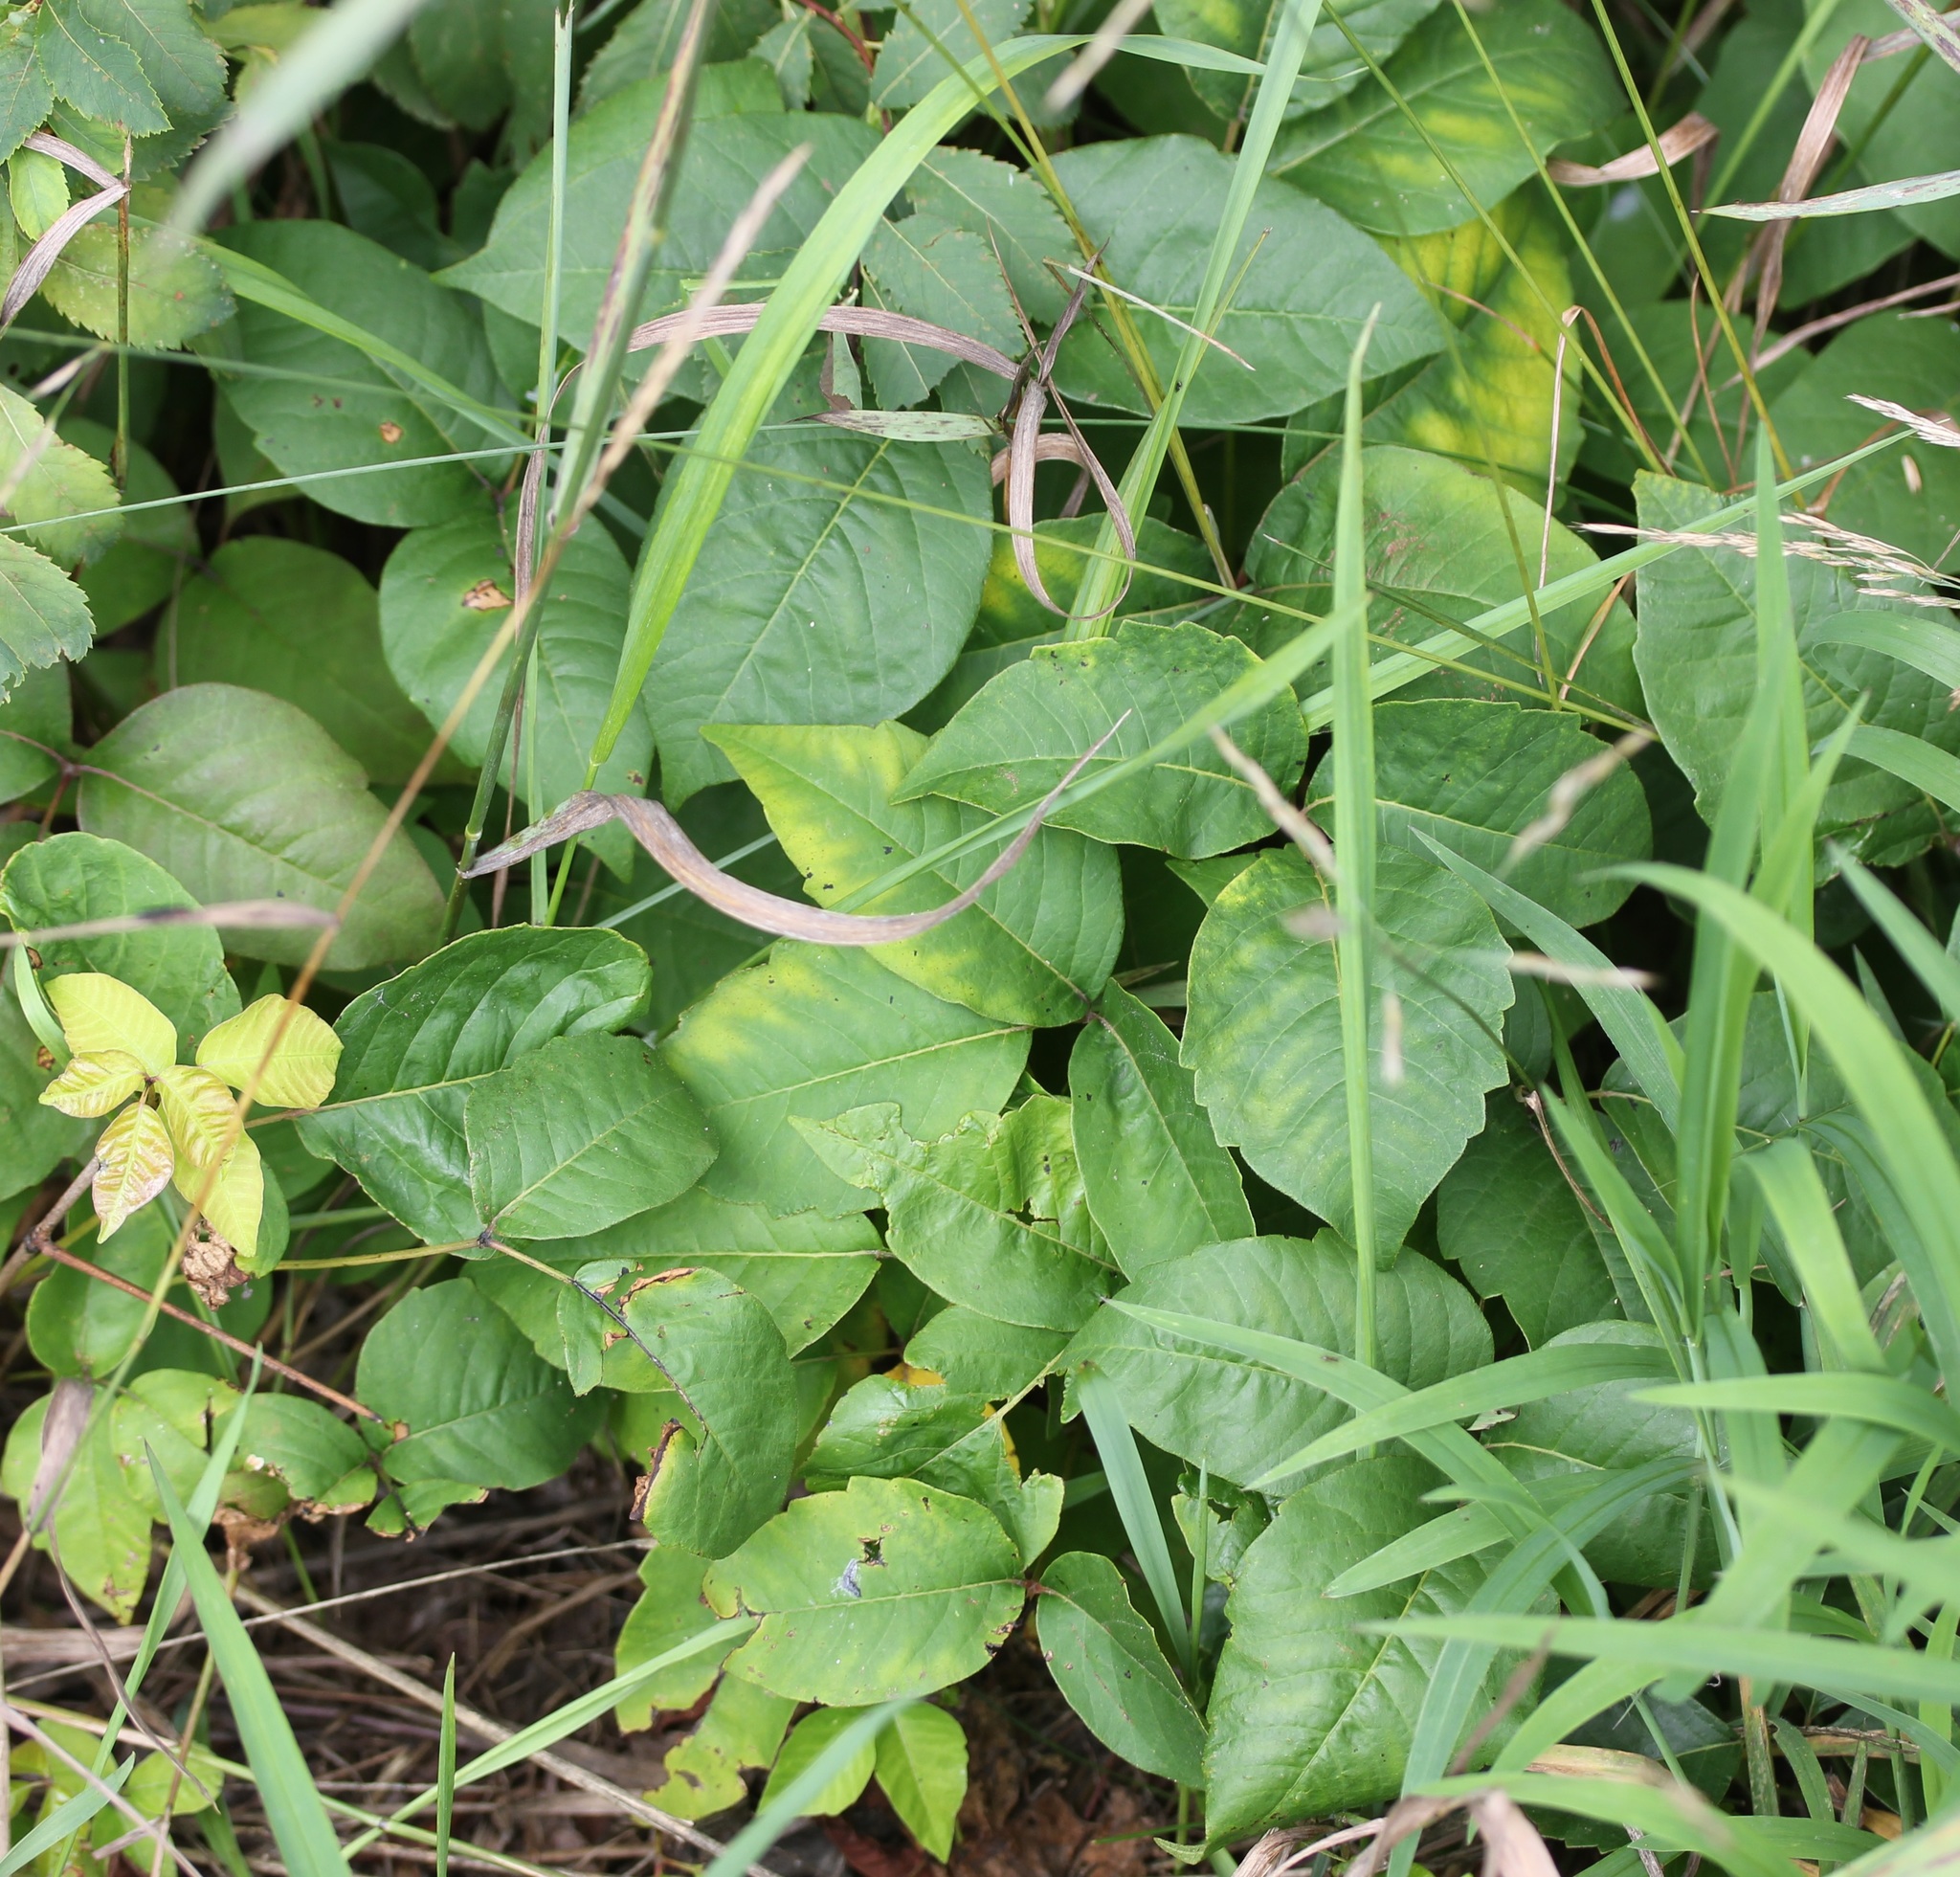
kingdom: Plantae
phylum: Tracheophyta
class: Magnoliopsida
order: Sapindales
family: Anacardiaceae
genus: Toxicodendron
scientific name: Toxicodendron radicans
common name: Poison ivy
